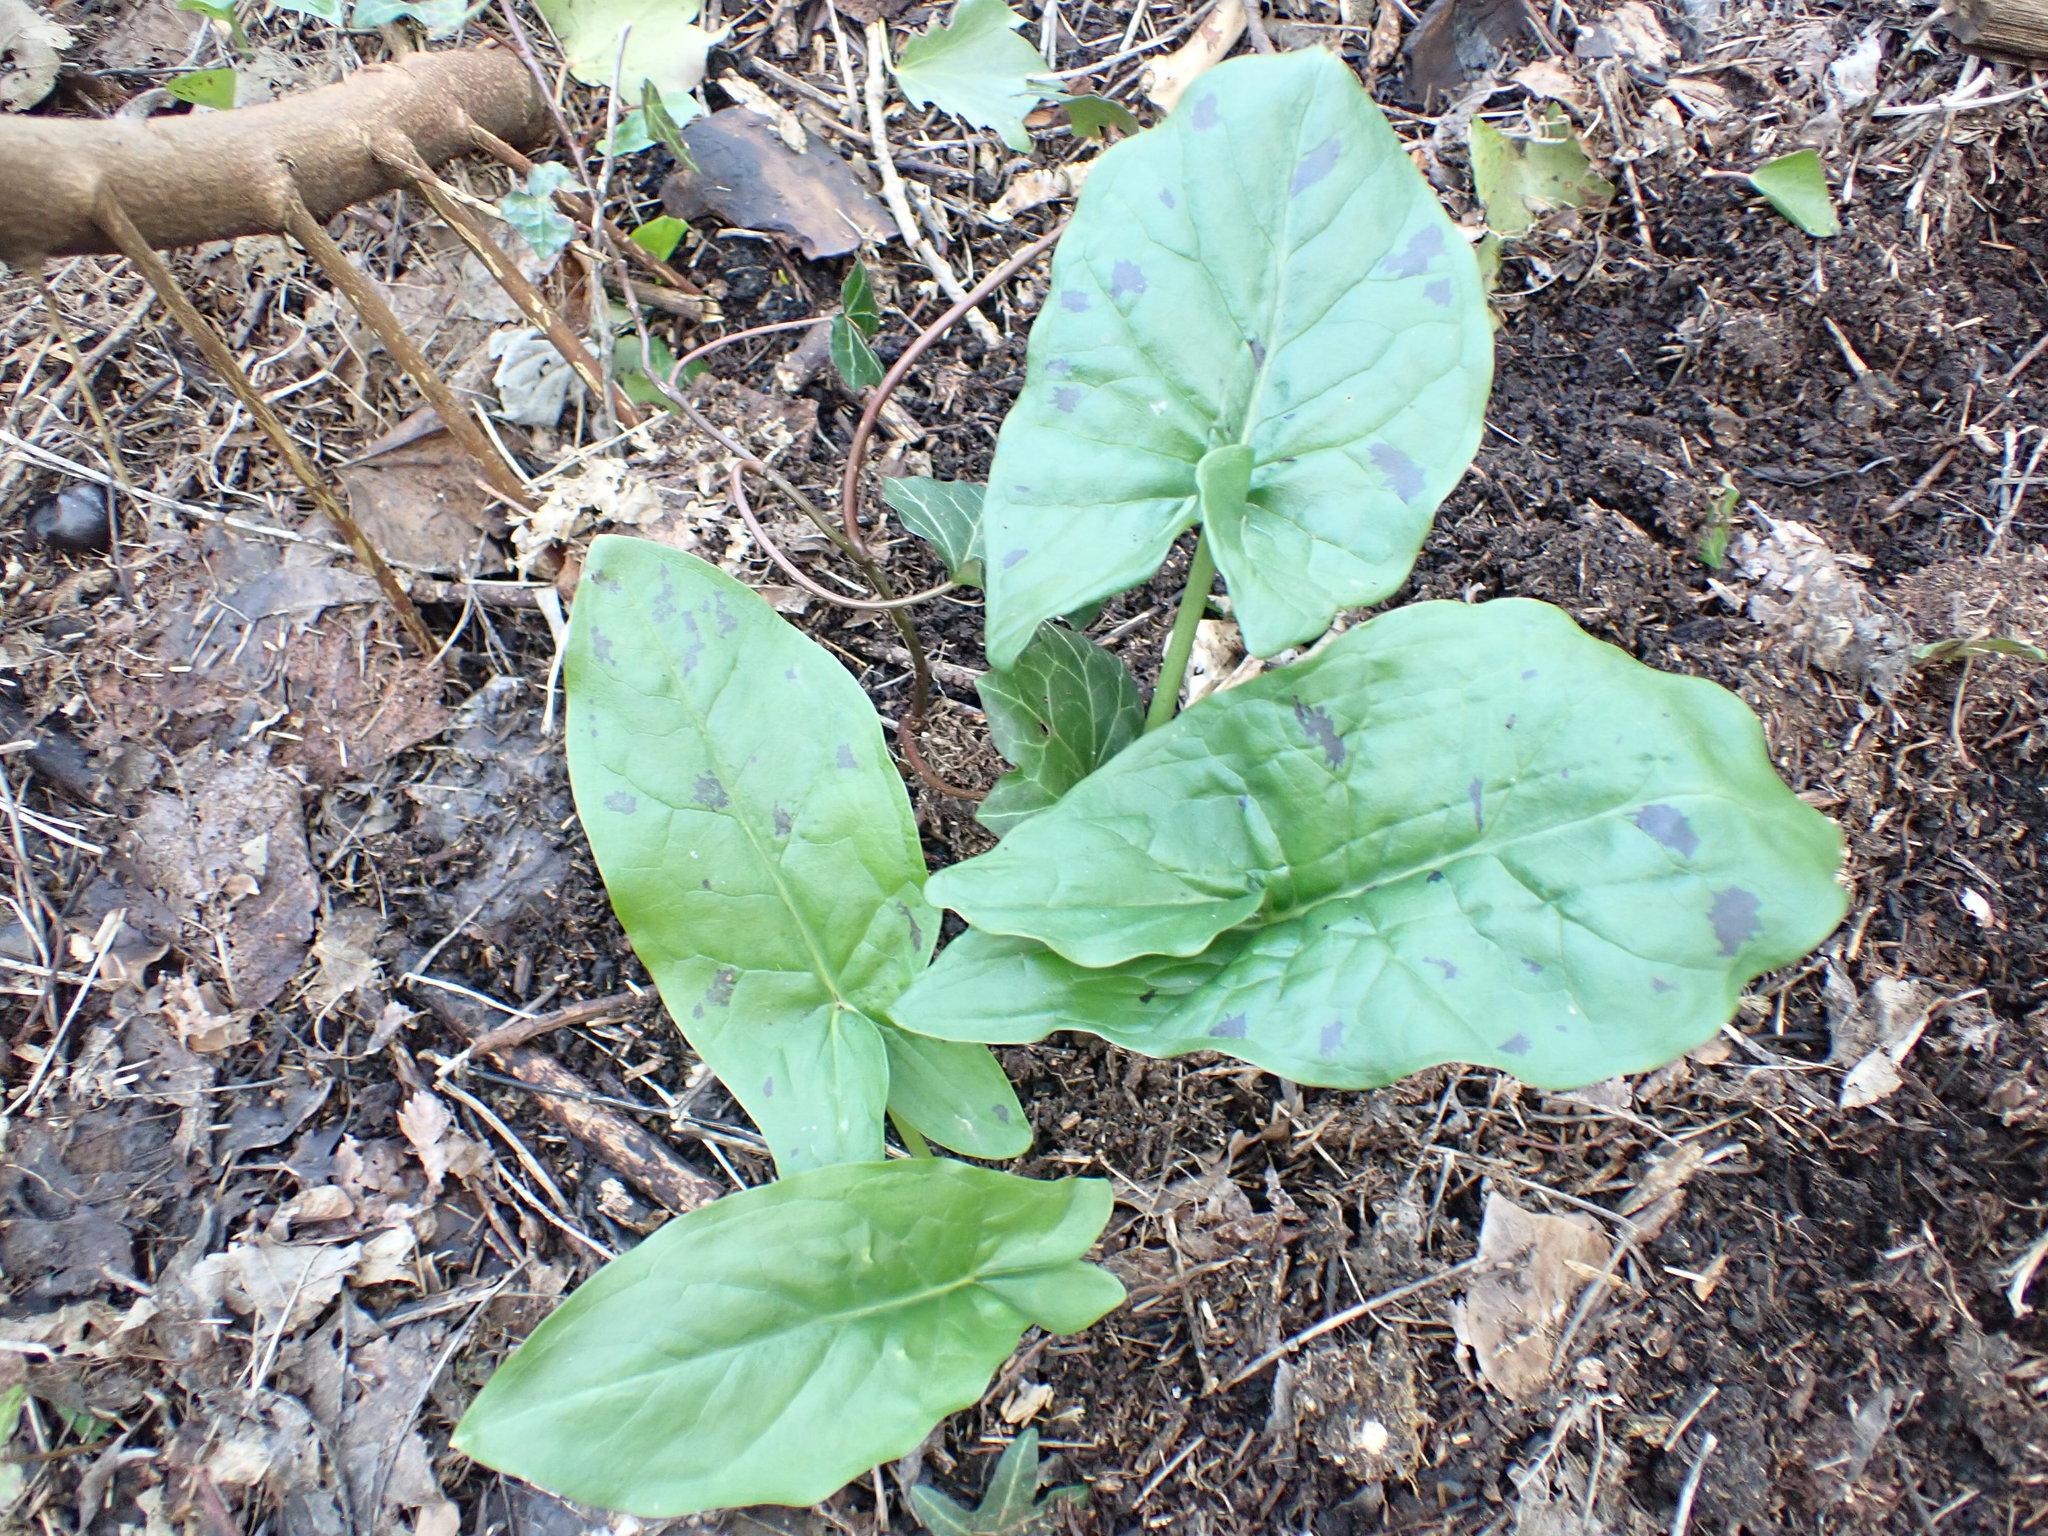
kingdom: Plantae
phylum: Tracheophyta
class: Liliopsida
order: Alismatales
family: Araceae
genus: Arum
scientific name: Arum maculatum
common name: Lords-and-ladies
